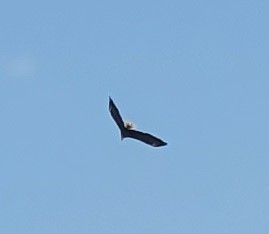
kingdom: Animalia
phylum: Chordata
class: Aves
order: Accipitriformes
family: Accipitridae
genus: Haliaeetus
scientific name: Haliaeetus leucocephalus
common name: Bald eagle
